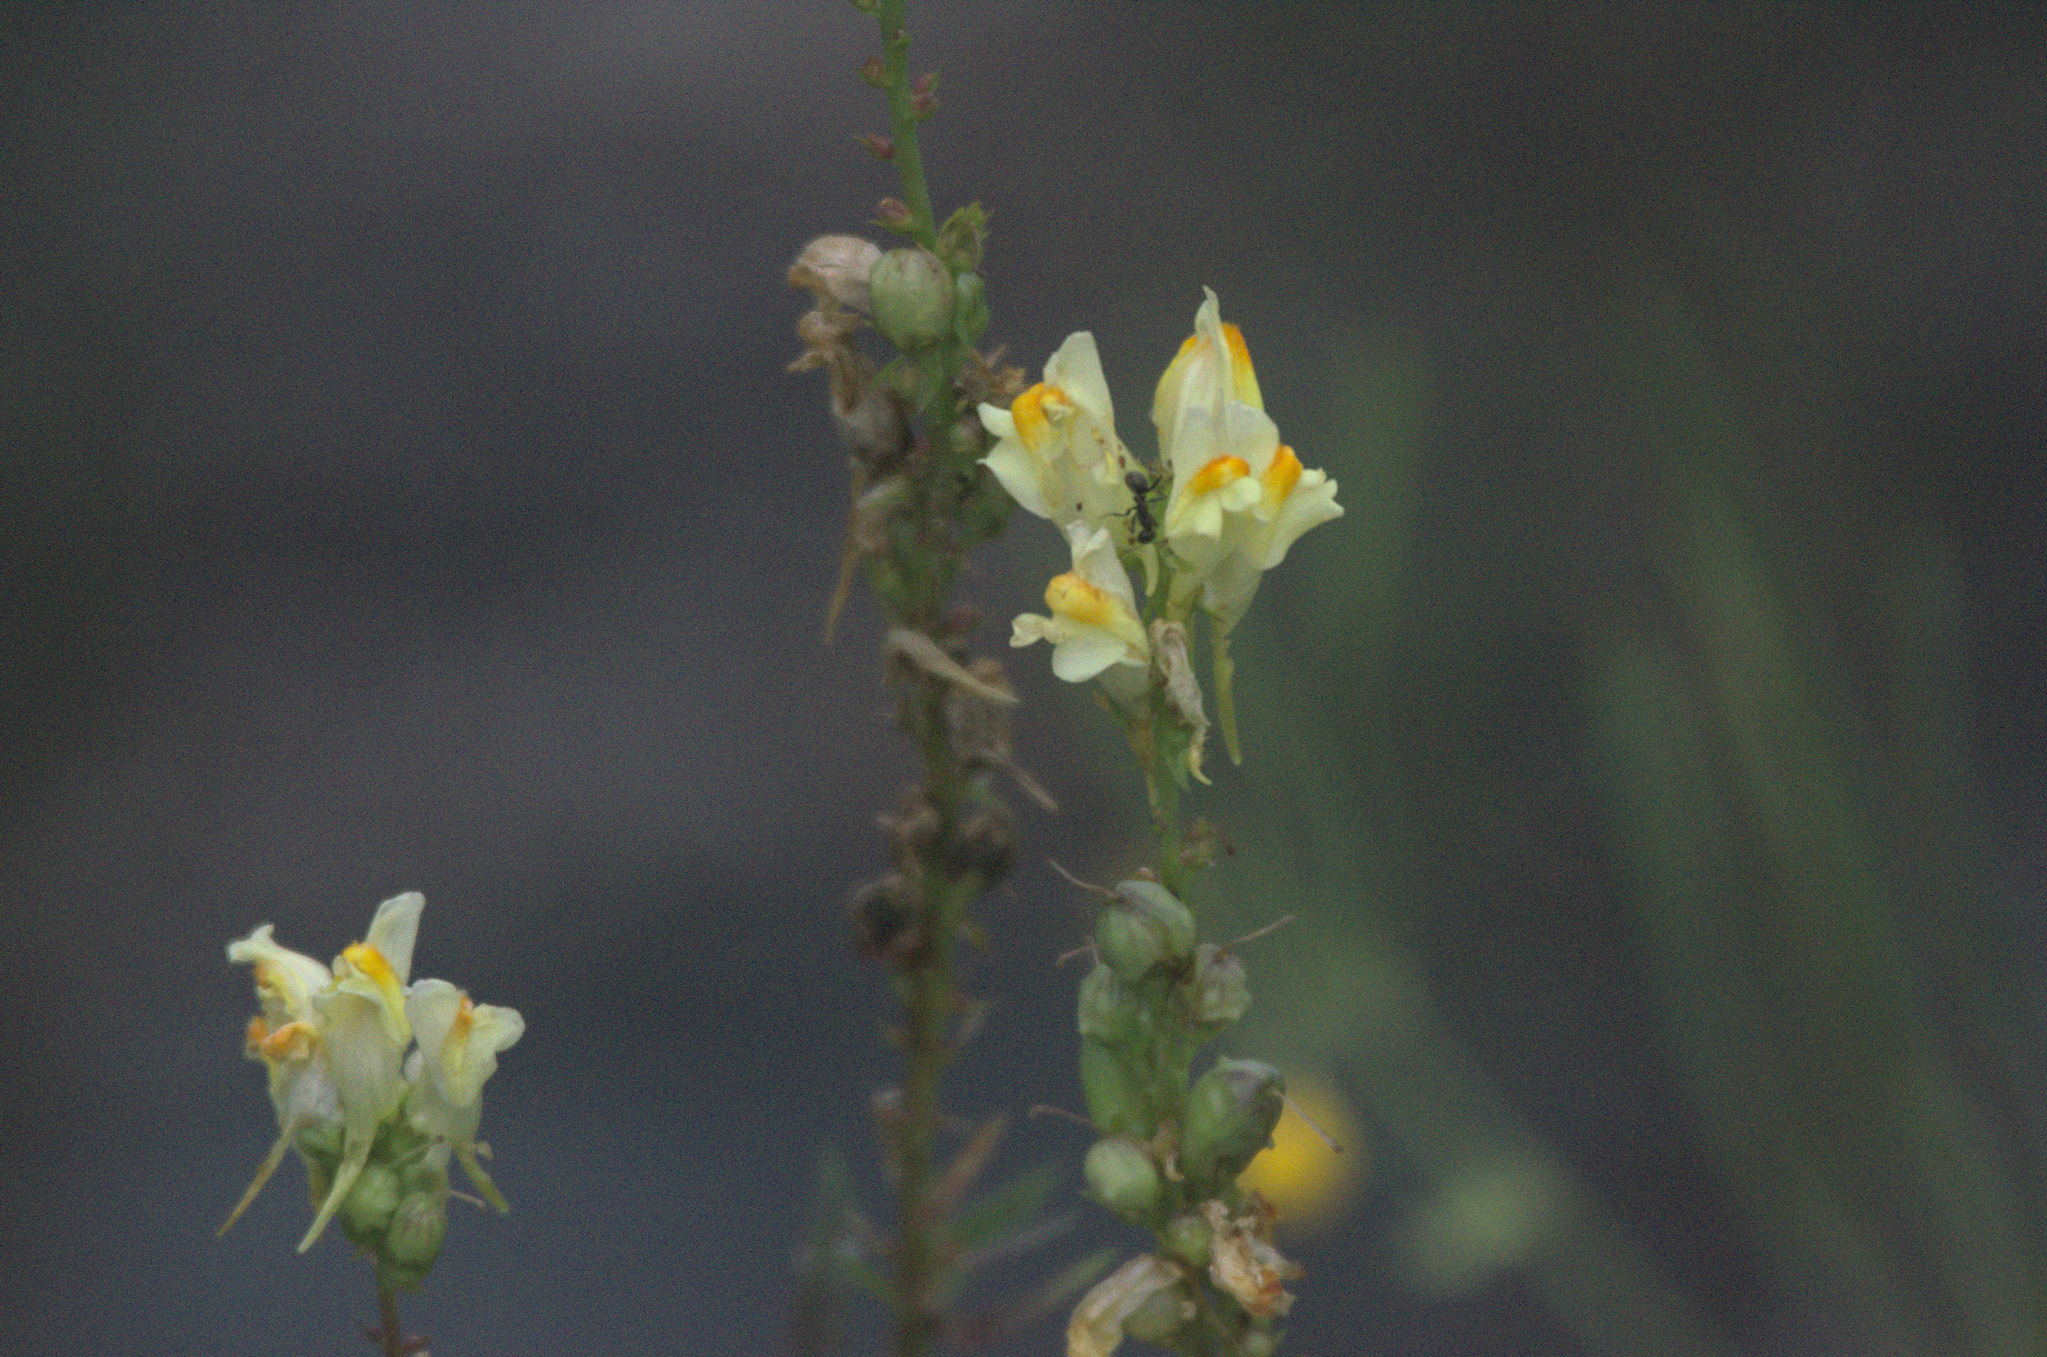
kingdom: Plantae
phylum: Tracheophyta
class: Magnoliopsida
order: Lamiales
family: Plantaginaceae
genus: Linaria
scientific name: Linaria vulgaris
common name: Butter and eggs
